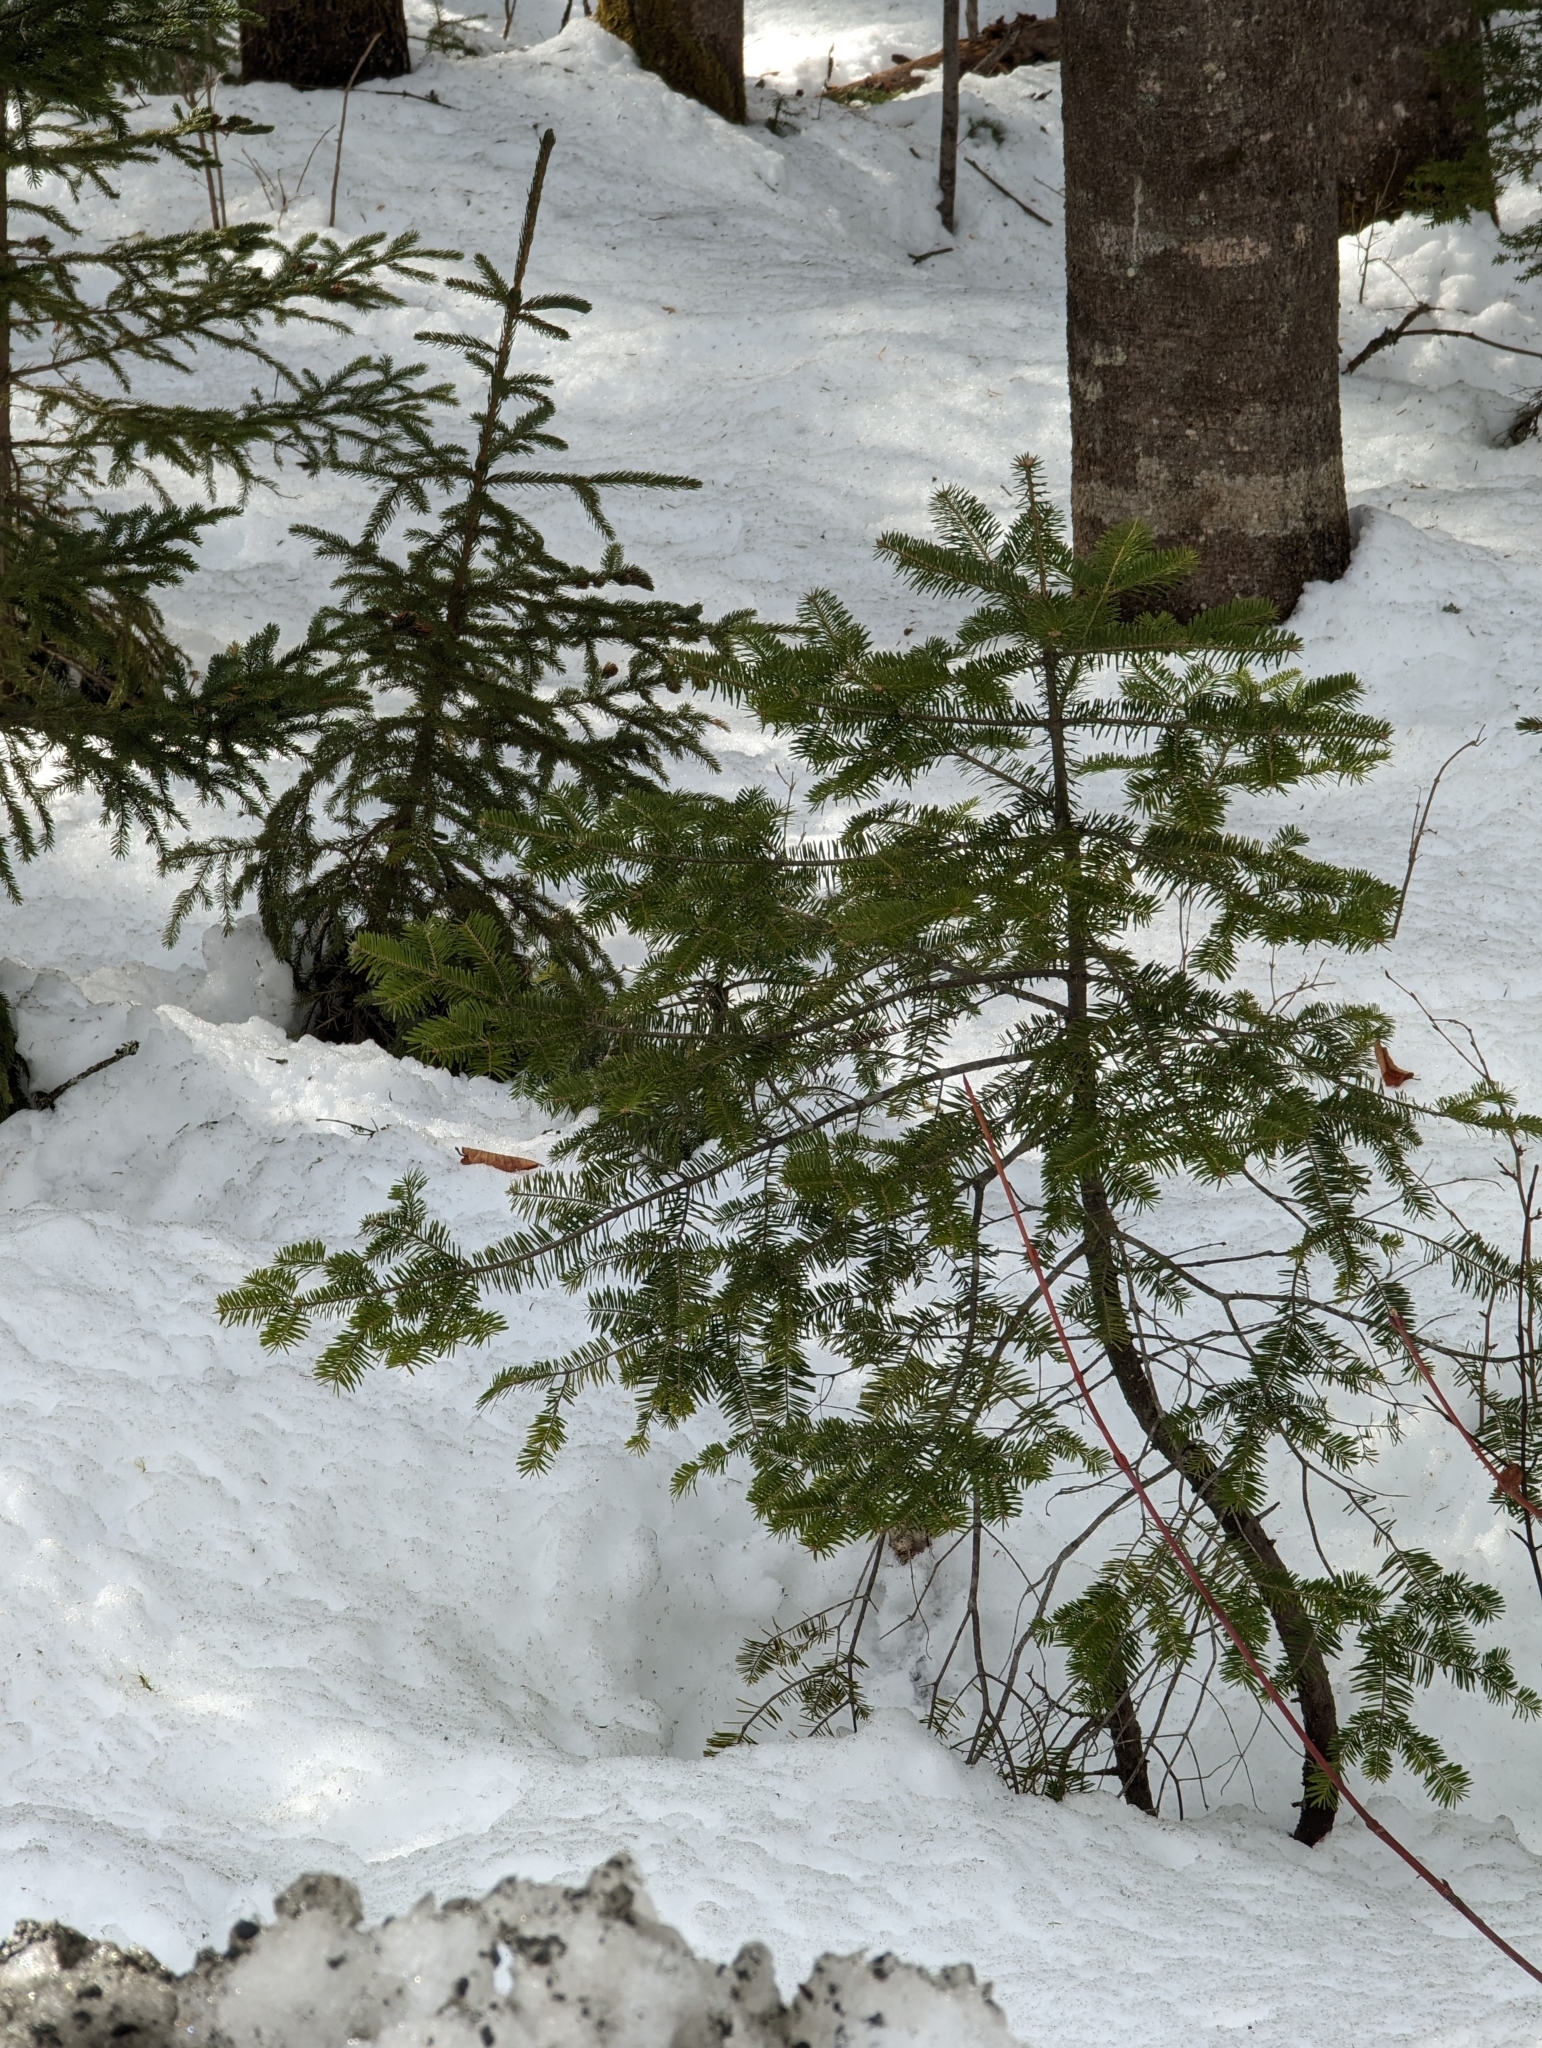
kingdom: Plantae
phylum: Tracheophyta
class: Pinopsida
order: Pinales
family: Pinaceae
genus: Abies
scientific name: Abies balsamea
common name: Balsam fir
